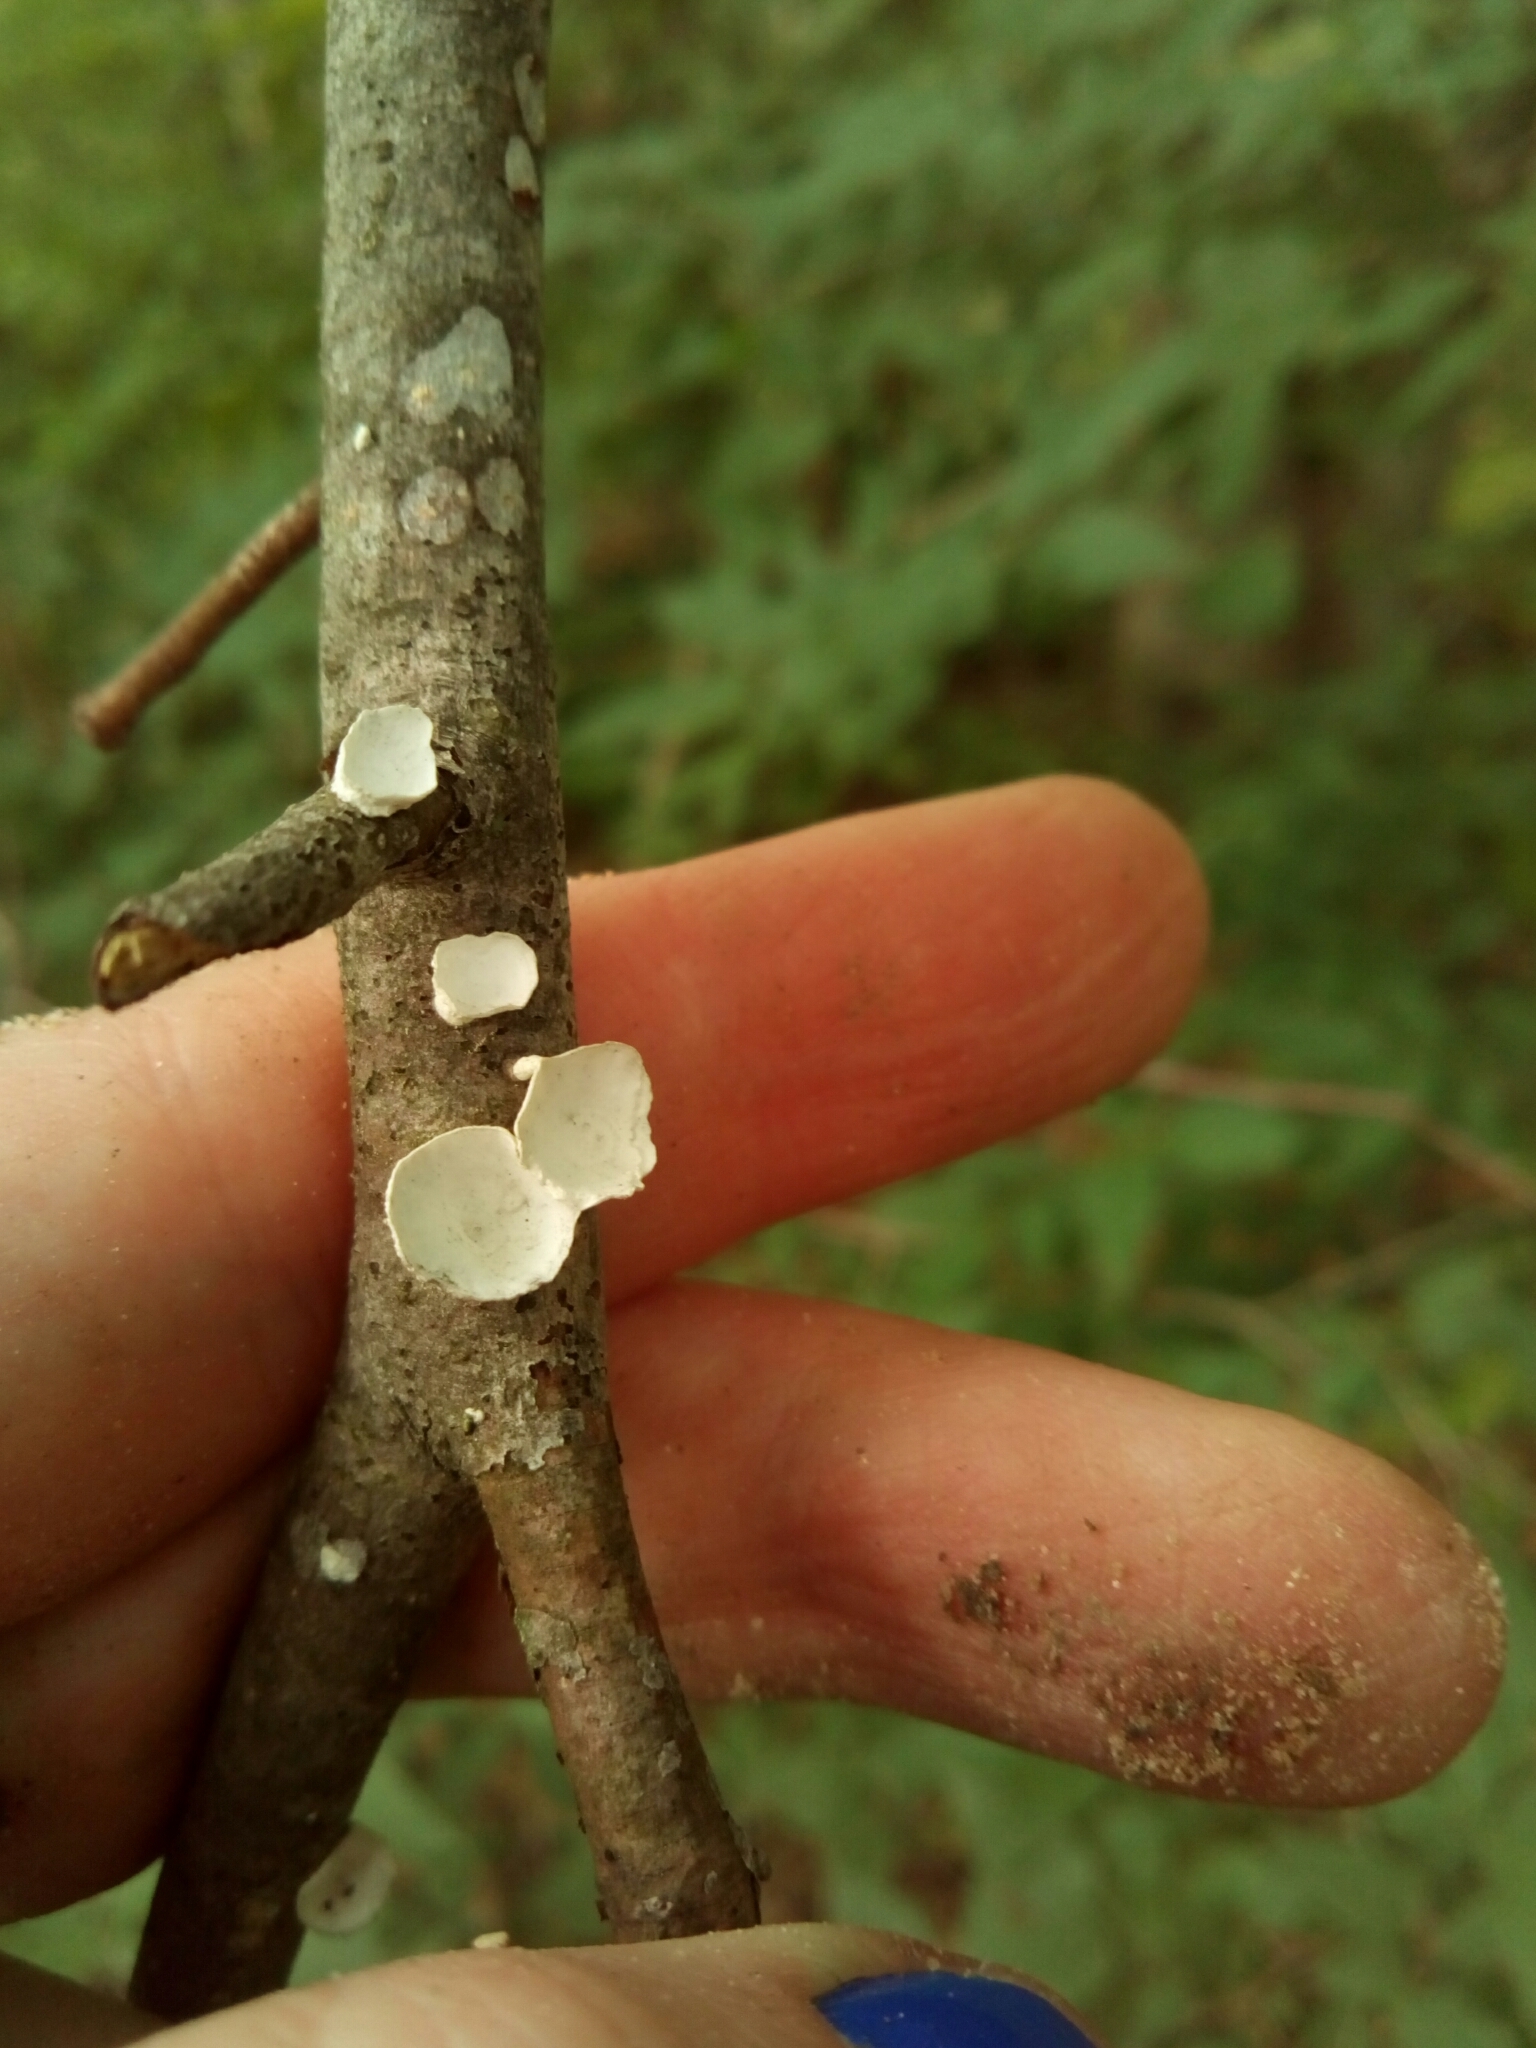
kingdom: Fungi
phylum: Basidiomycota
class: Agaricomycetes
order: Polyporales
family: Polyporaceae
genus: Poronidulus
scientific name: Poronidulus conchifer
